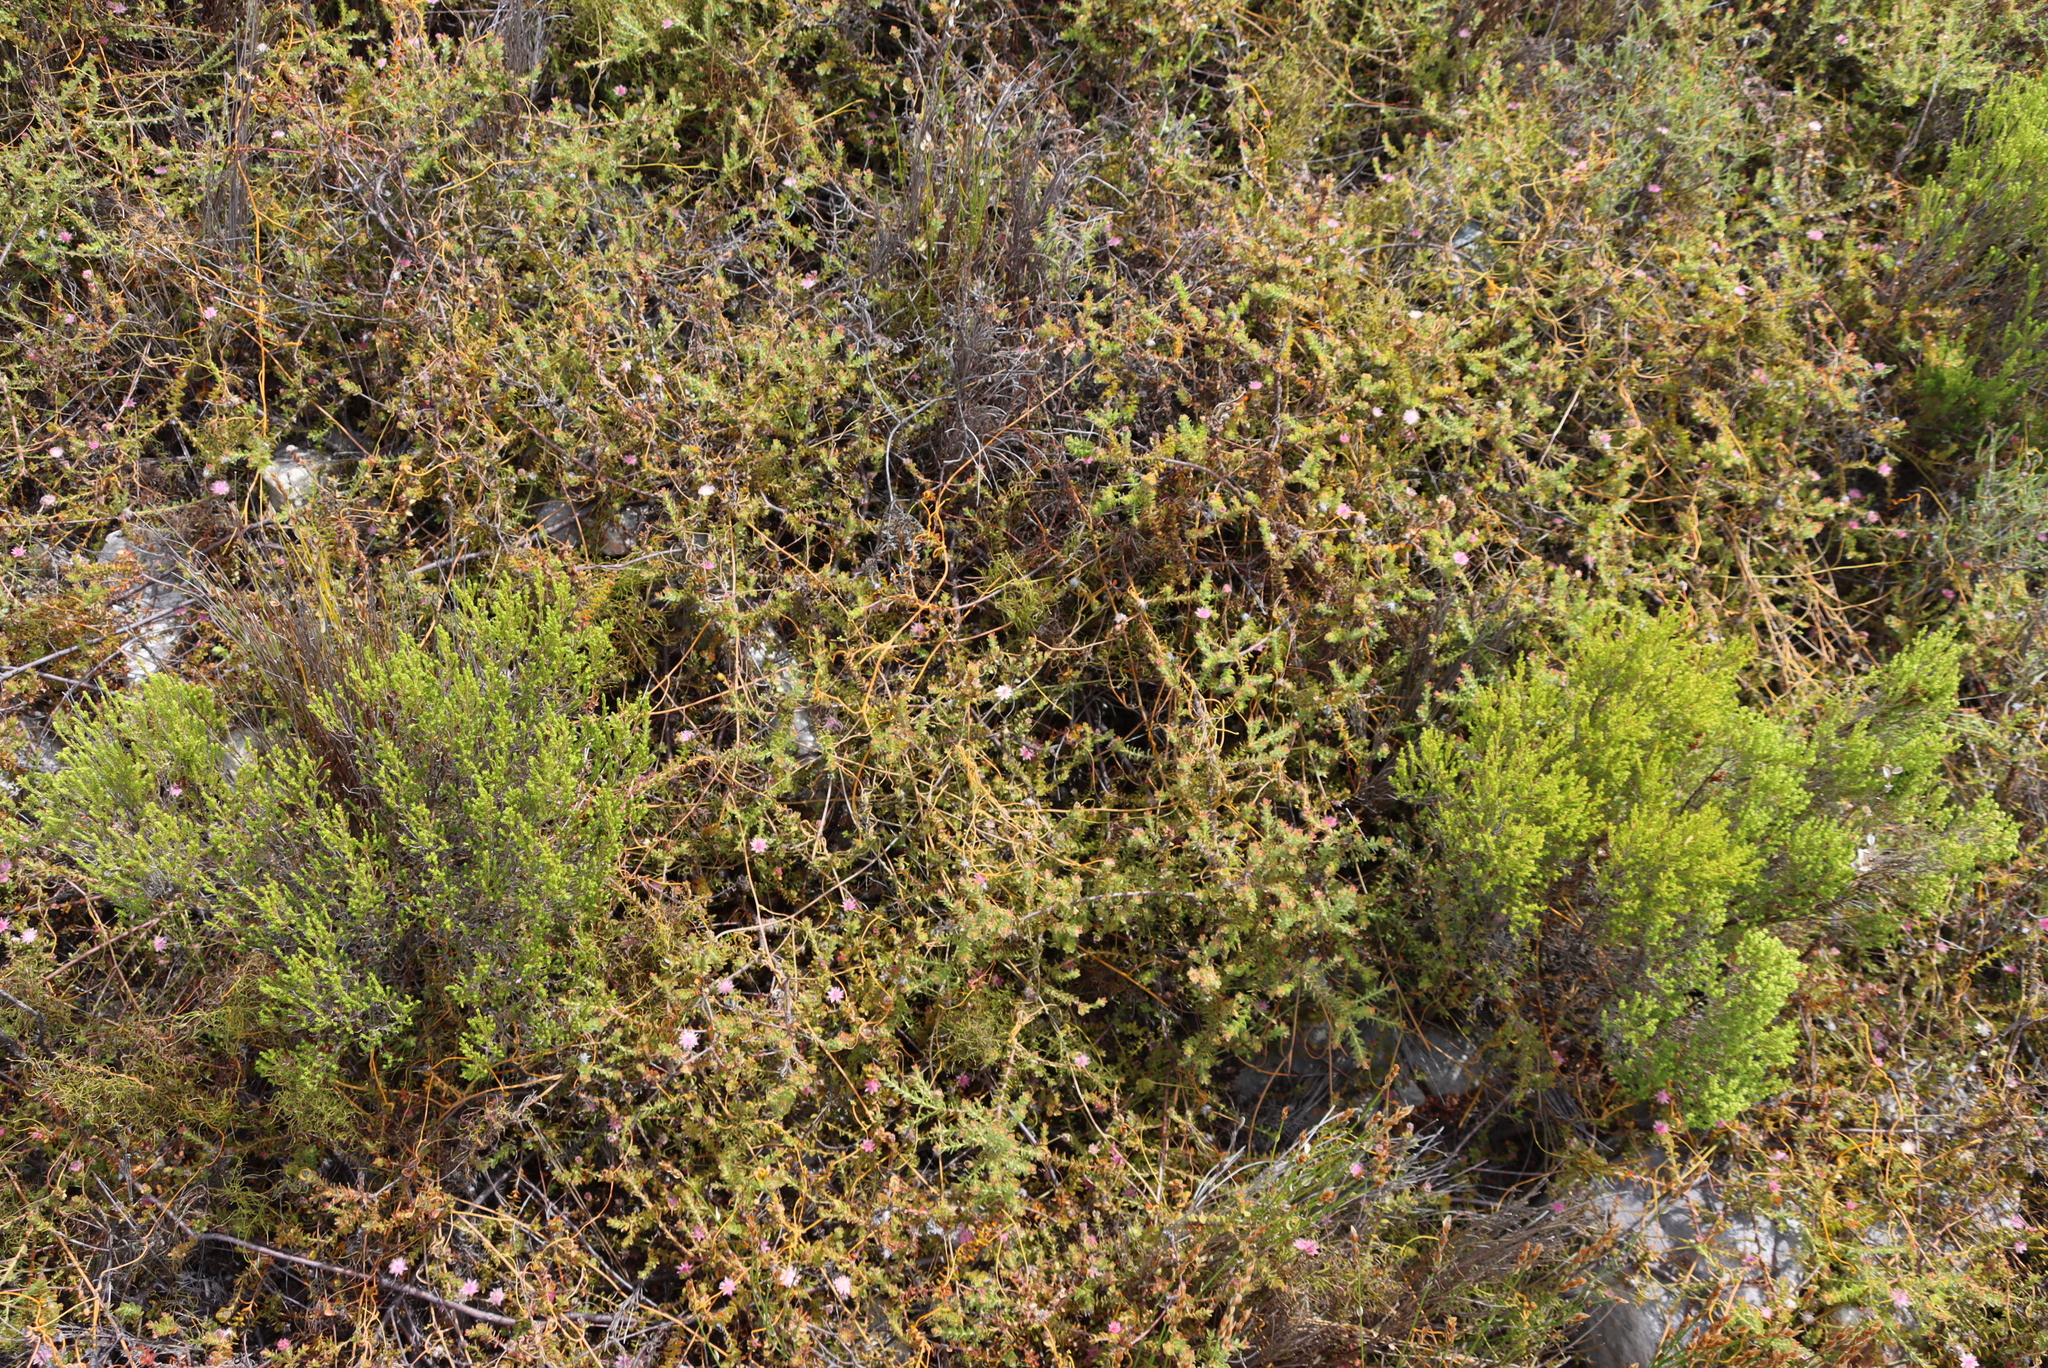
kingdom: Plantae
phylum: Tracheophyta
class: Magnoliopsida
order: Proteales
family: Proteaceae
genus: Diastella
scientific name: Diastella divaricata
